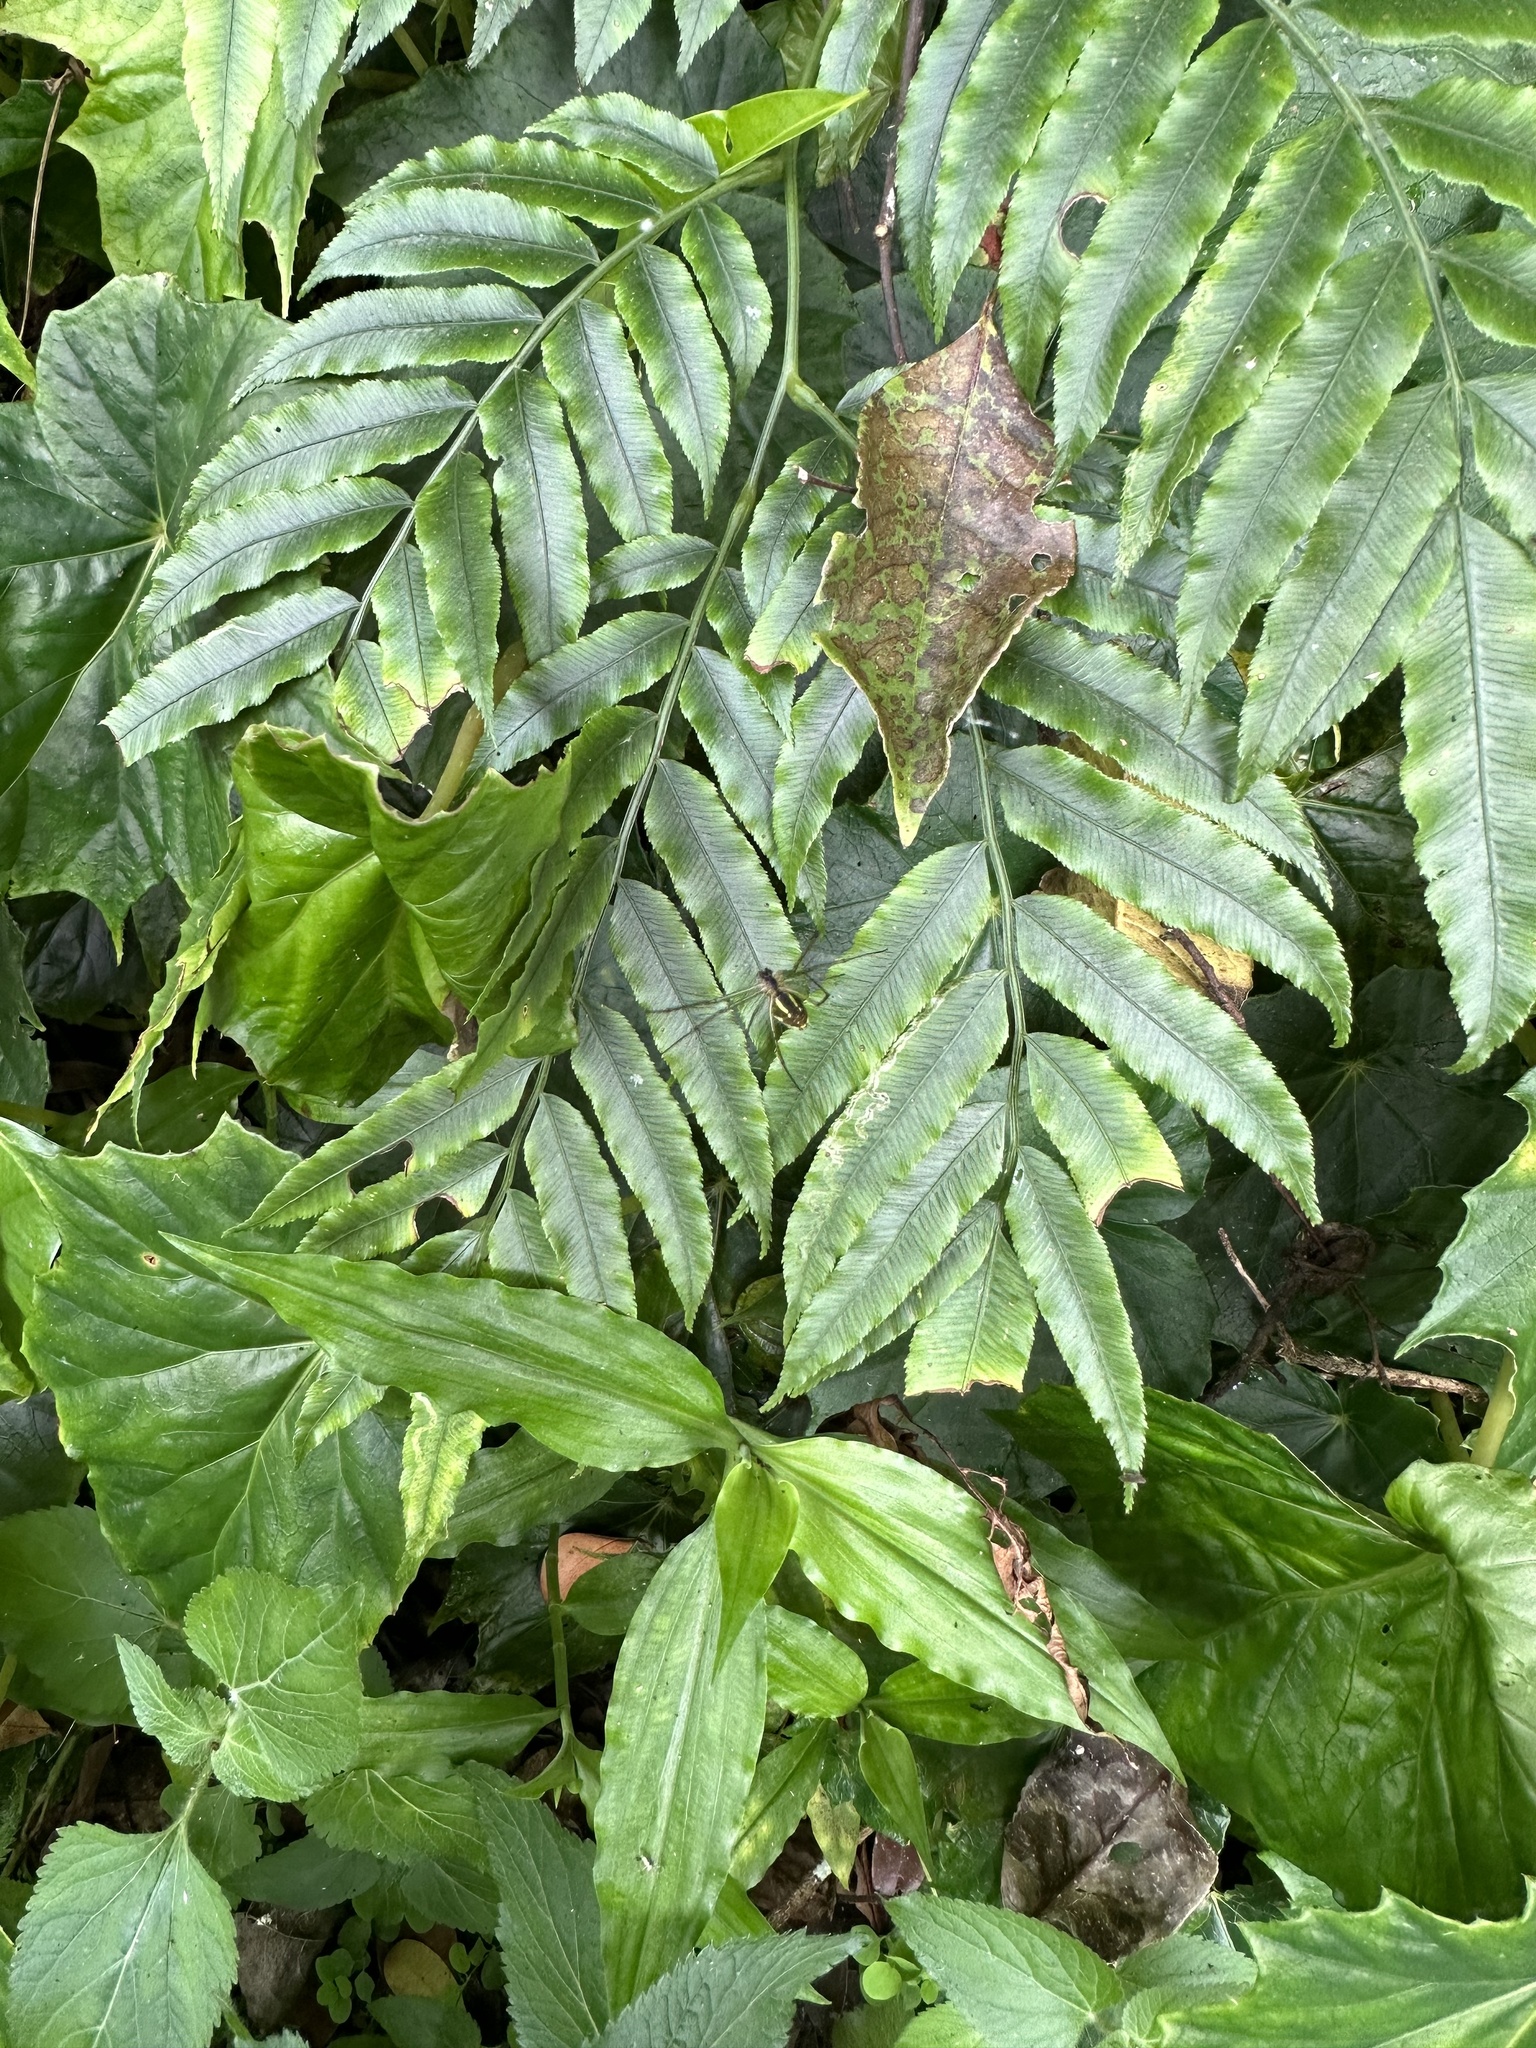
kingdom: Plantae
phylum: Tracheophyta
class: Polypodiopsida
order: Marattiales
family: Marattiaceae
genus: Angiopteris
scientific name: Angiopteris lygodiifolia
